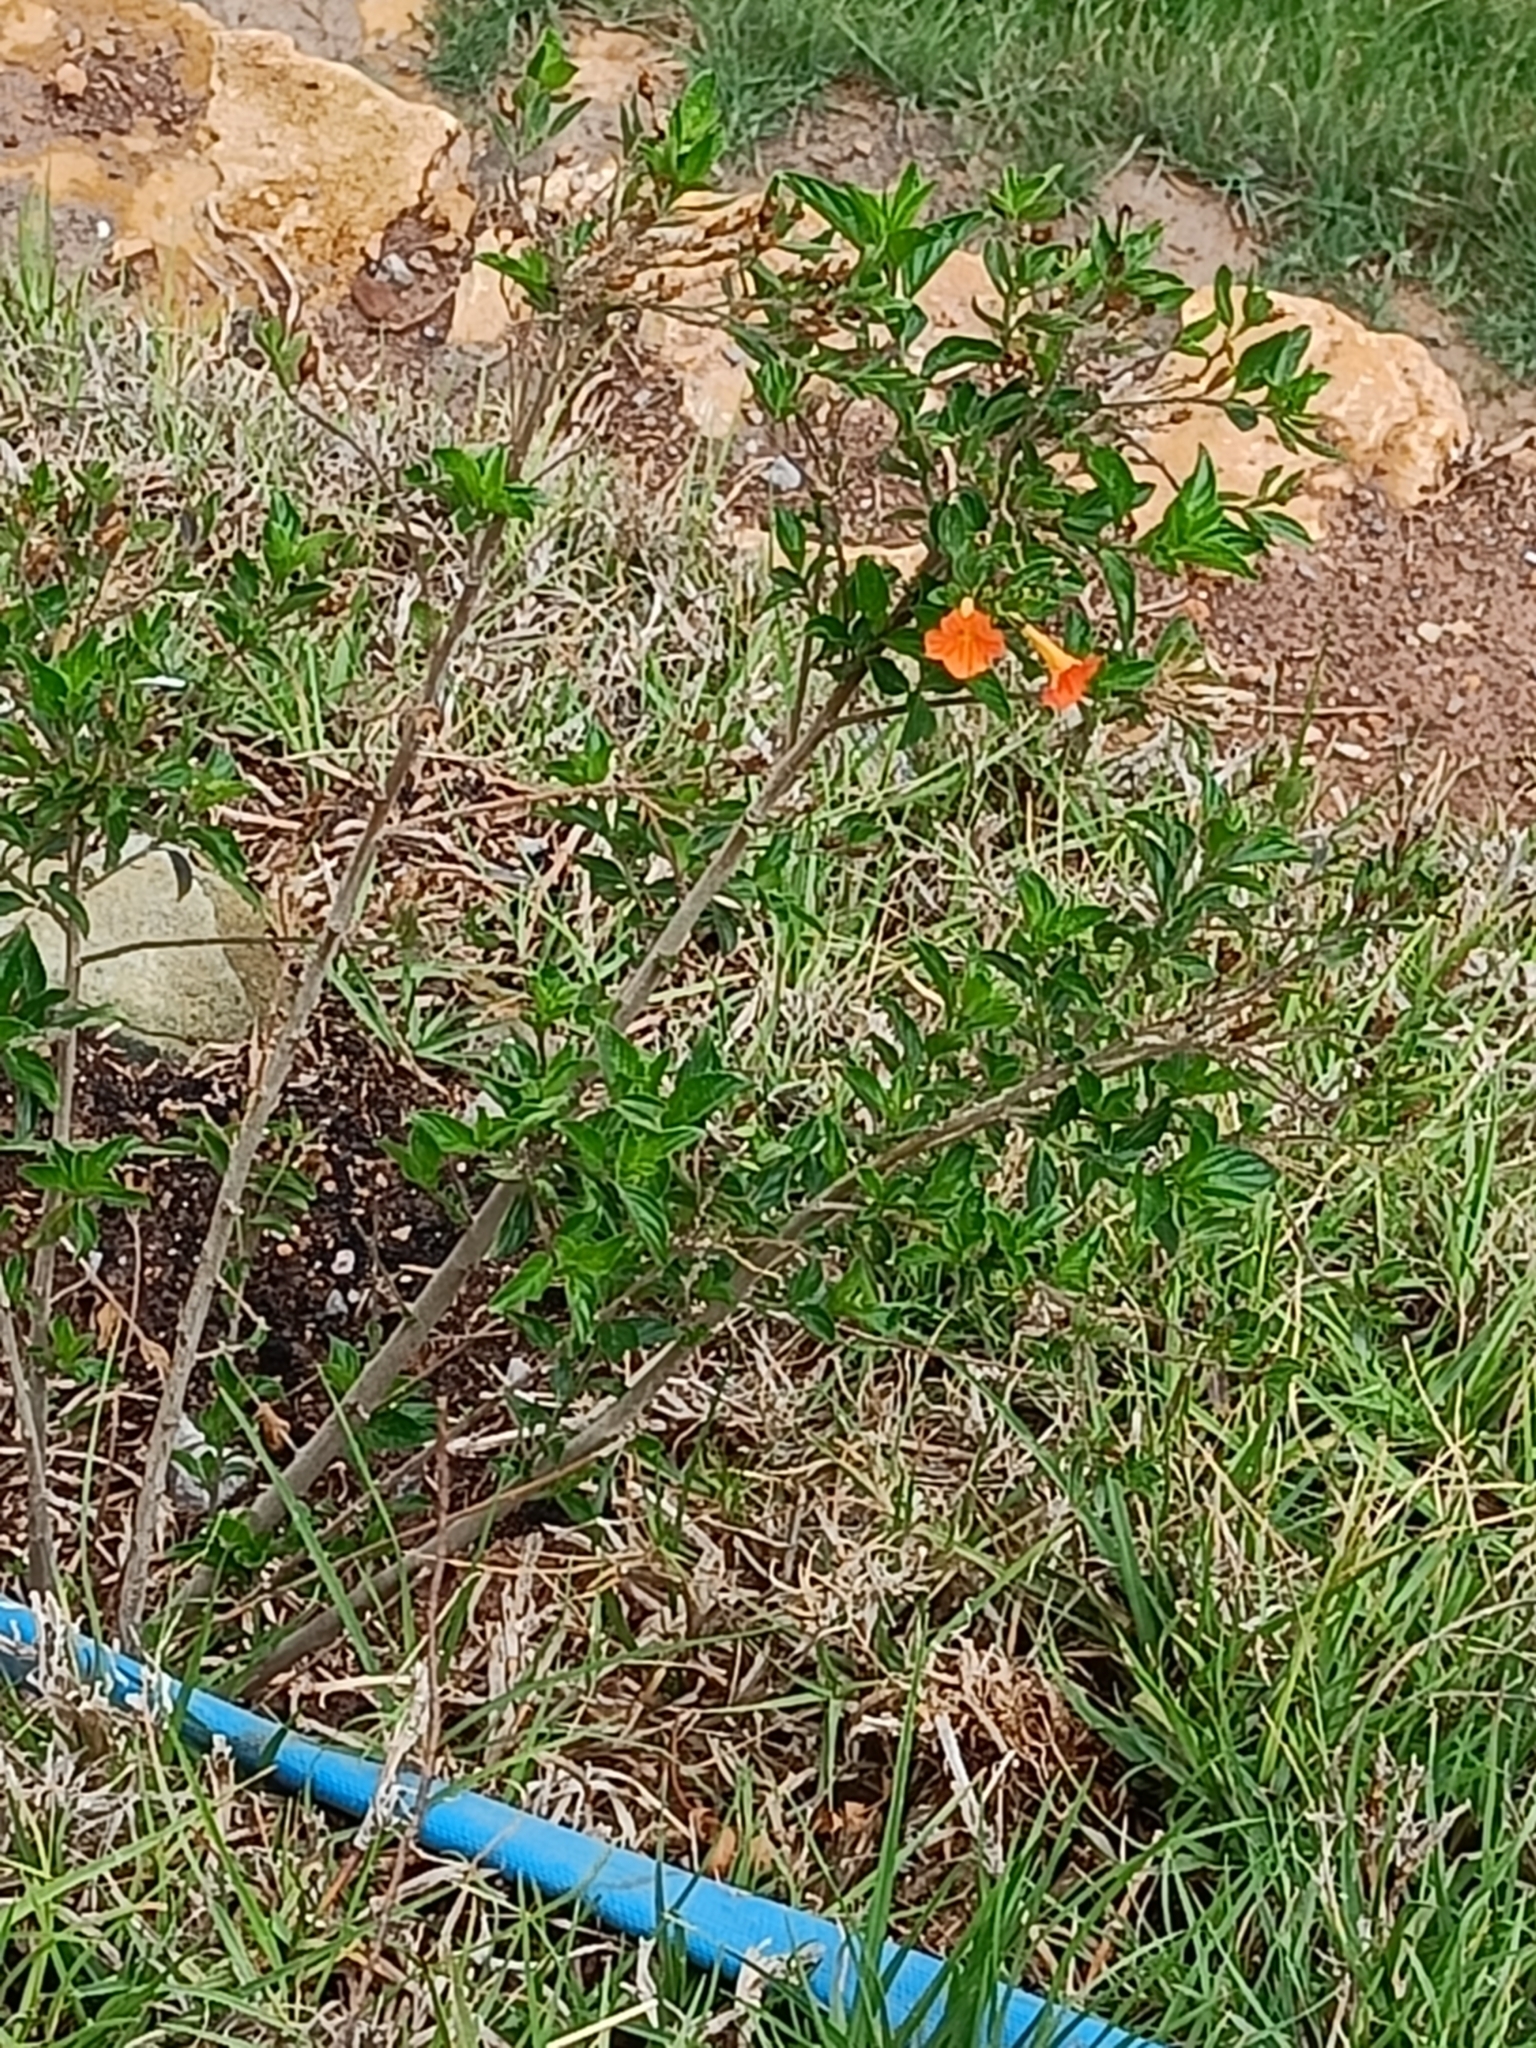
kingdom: Plantae
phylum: Tracheophyta
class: Magnoliopsida
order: Solanales
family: Solanaceae
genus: Streptosolen
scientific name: Streptosolen jamesonii
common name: Marmalade bush
